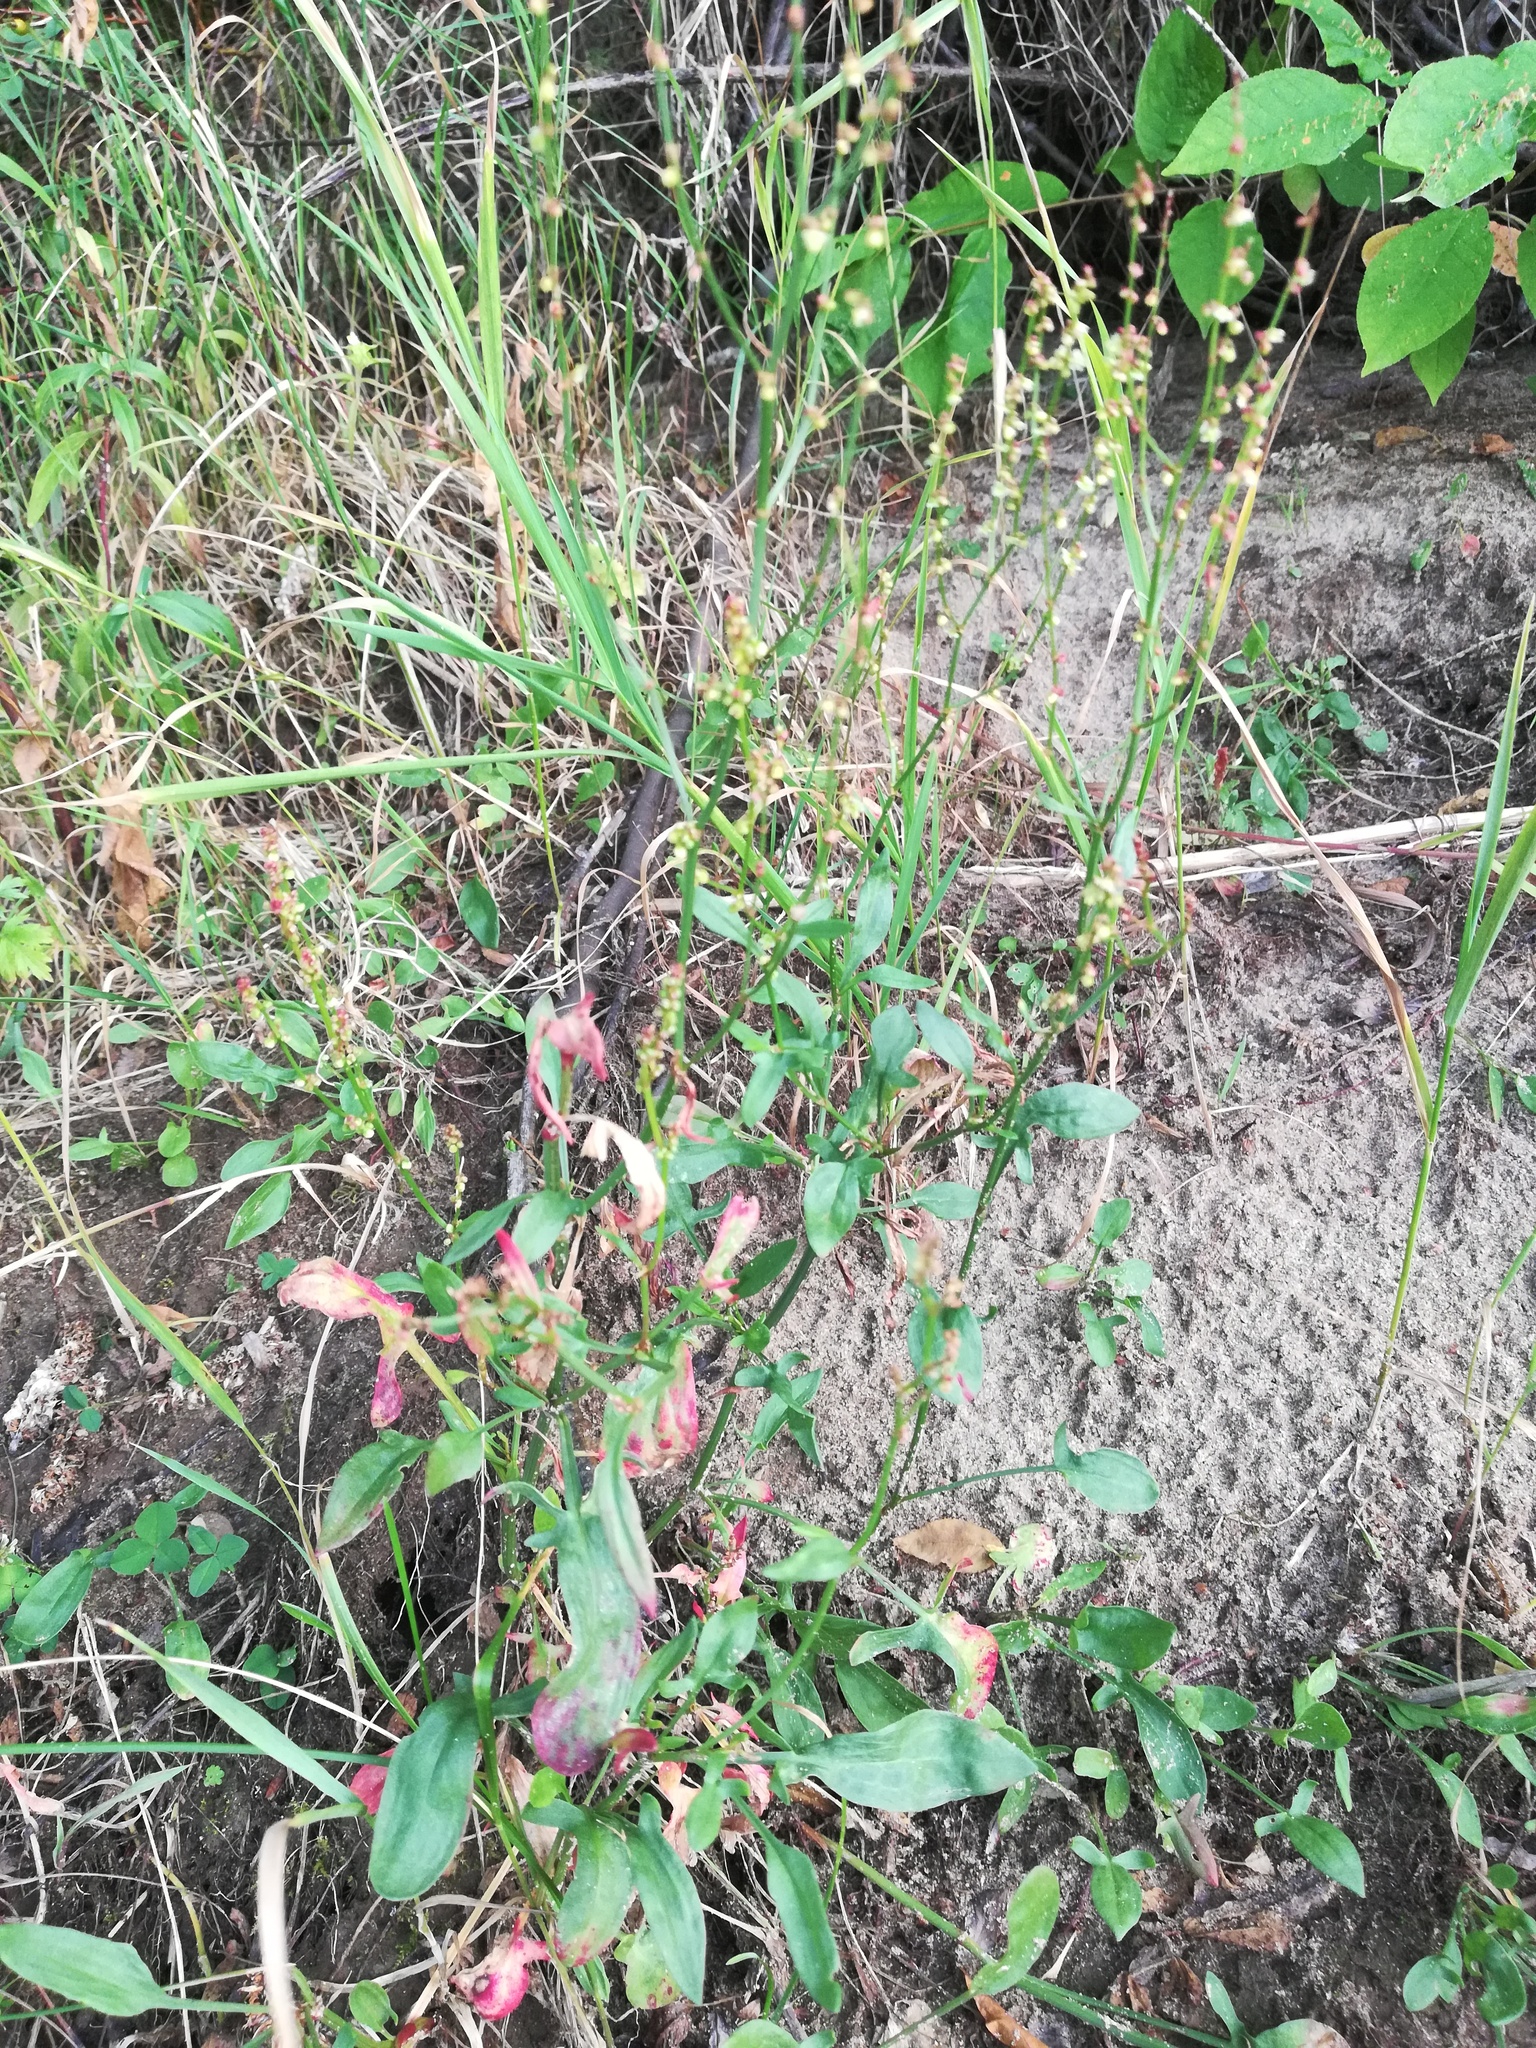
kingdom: Plantae
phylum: Tracheophyta
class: Magnoliopsida
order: Caryophyllales
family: Polygonaceae
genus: Rumex
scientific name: Rumex acetosella
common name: Common sheep sorrel
